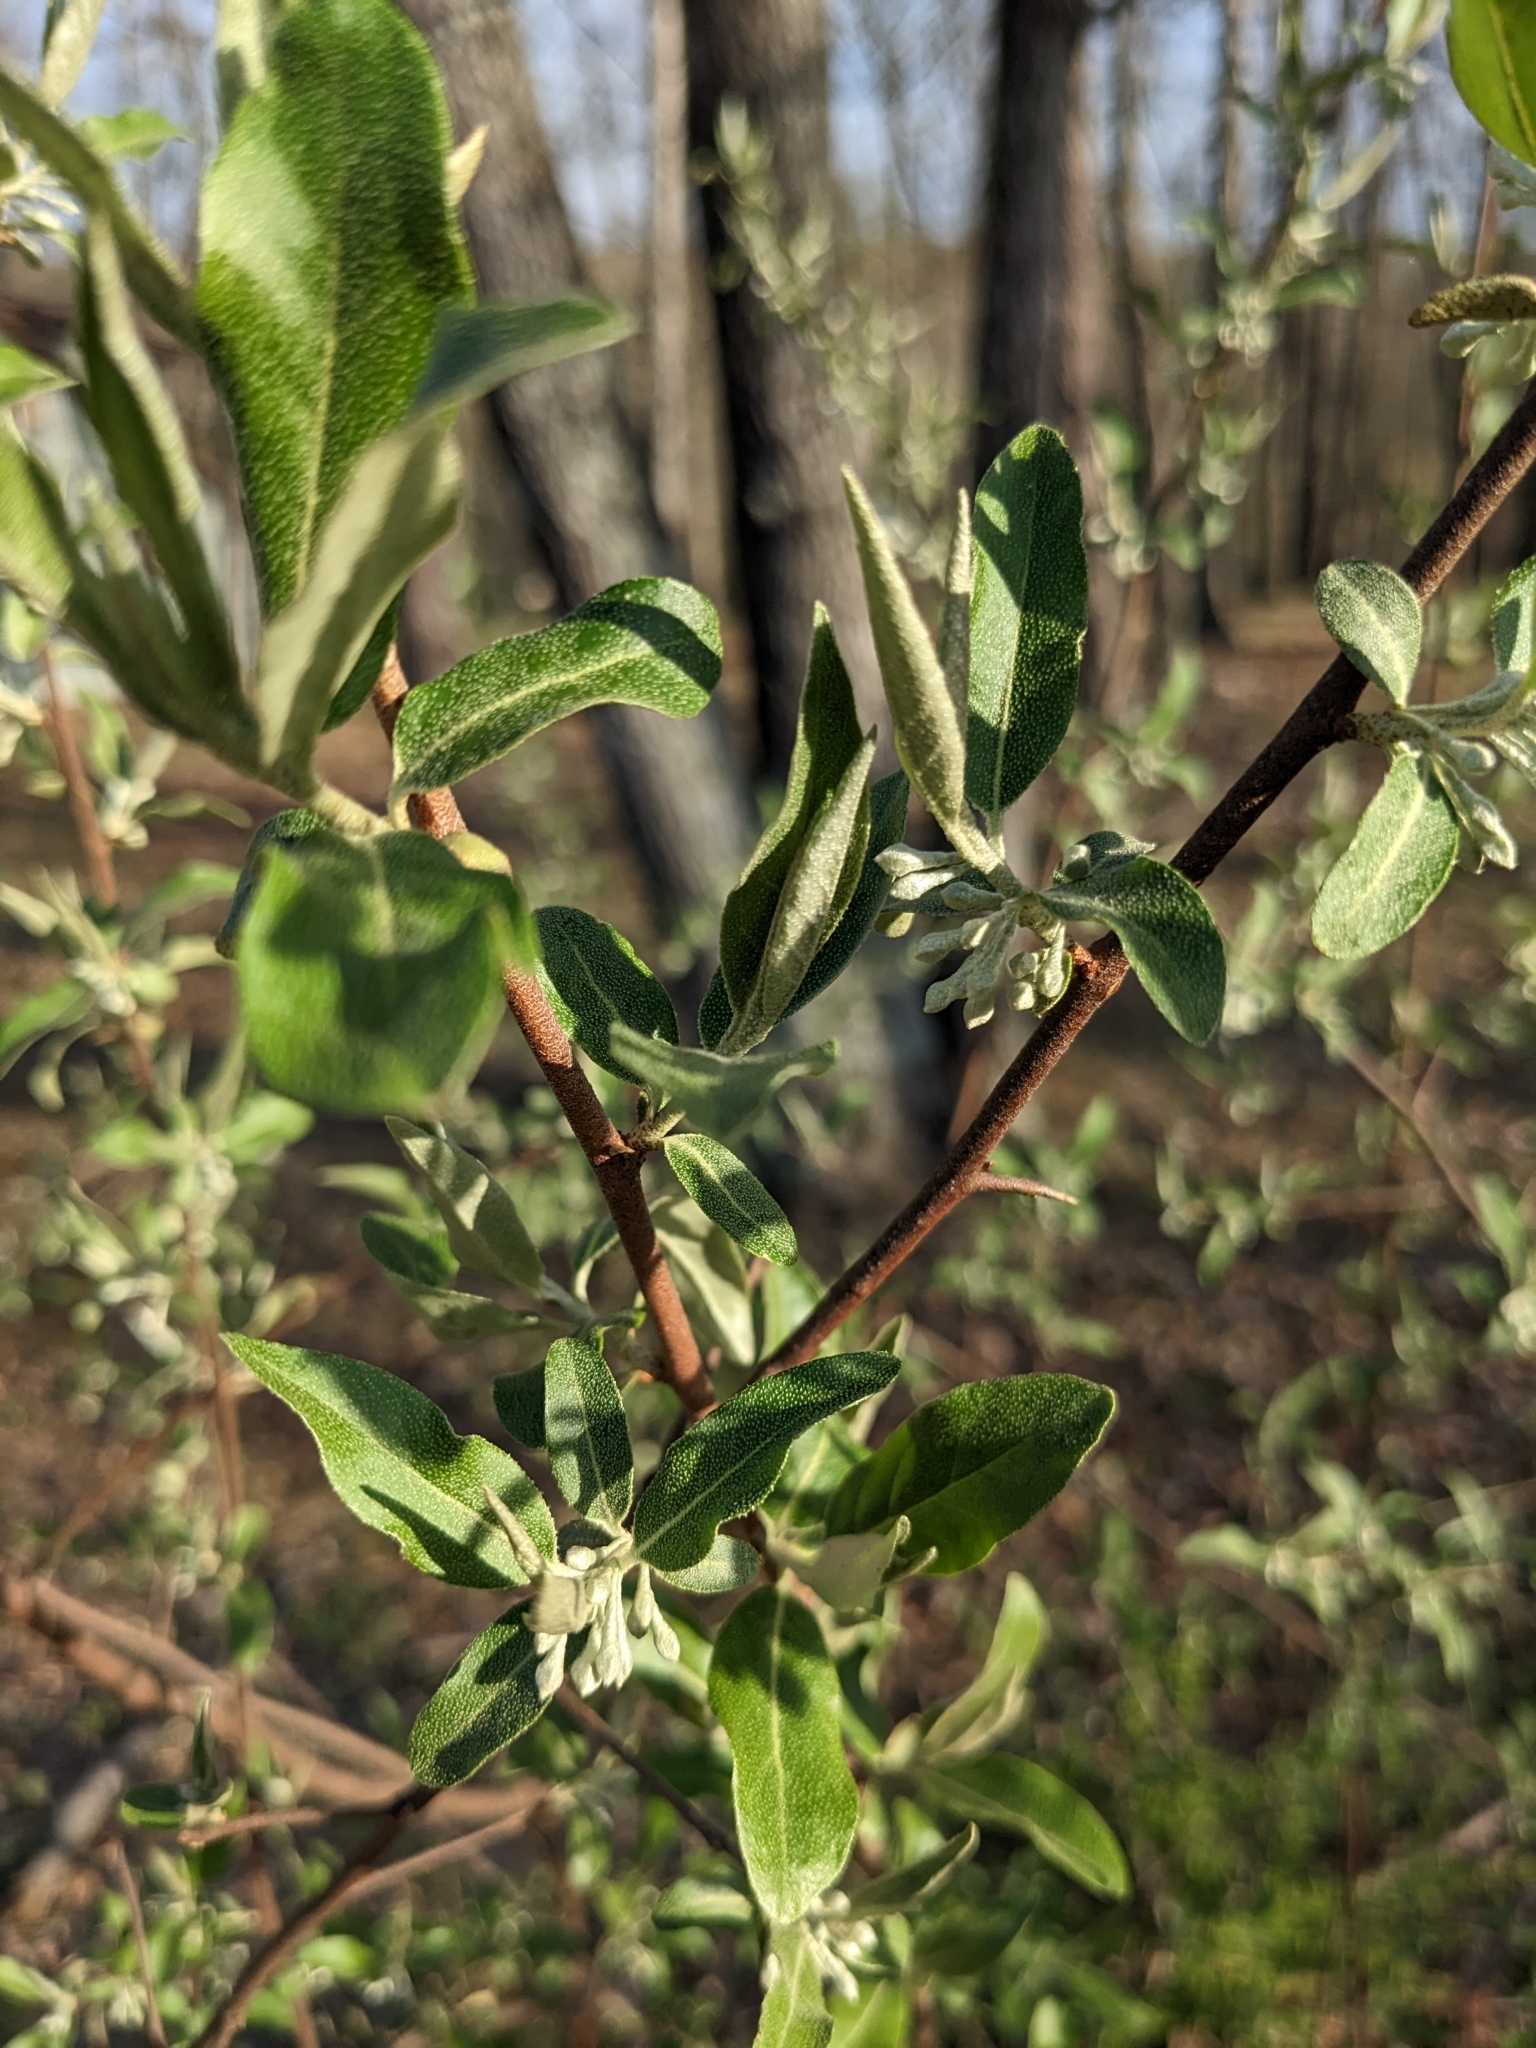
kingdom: Plantae
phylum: Tracheophyta
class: Magnoliopsida
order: Rosales
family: Elaeagnaceae
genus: Elaeagnus
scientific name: Elaeagnus umbellata
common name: Autumn olive
